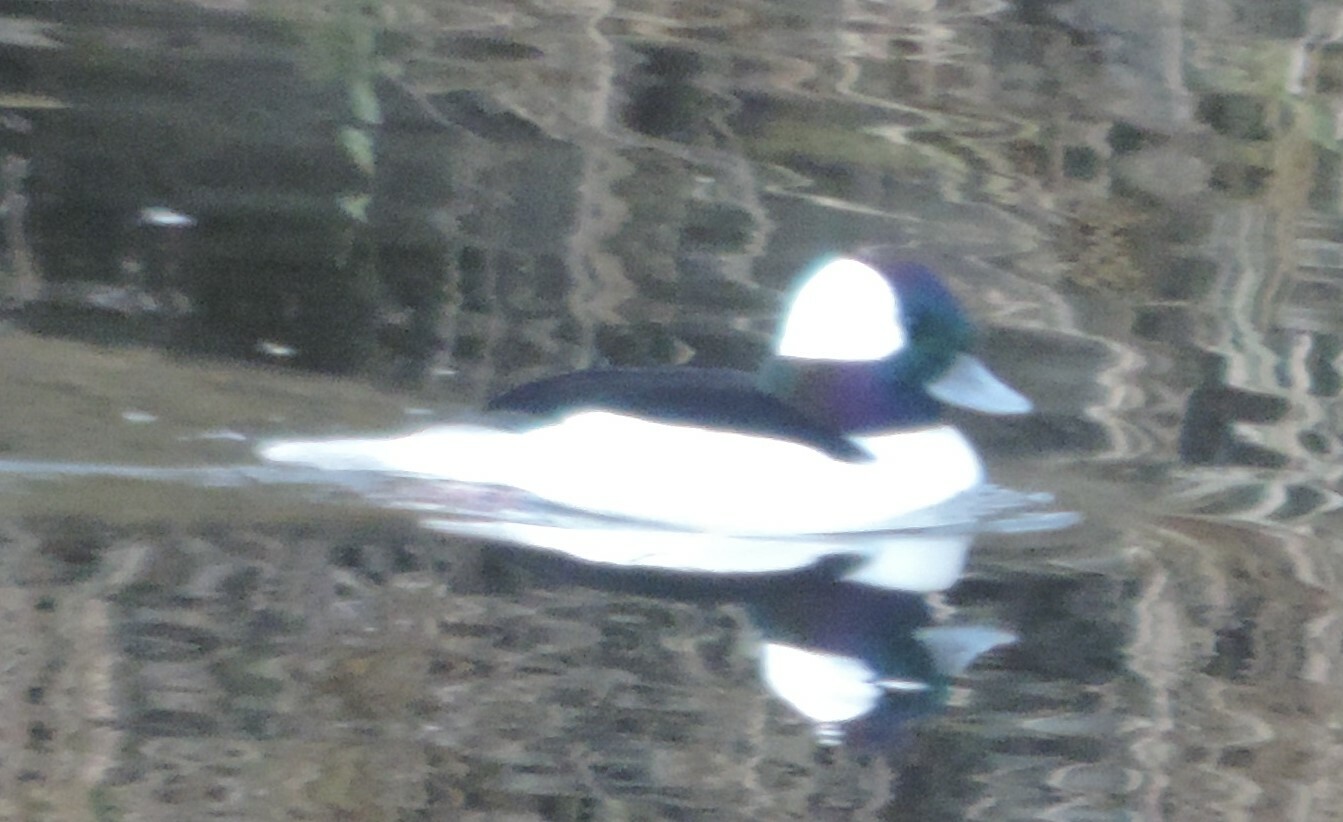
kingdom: Animalia
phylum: Chordata
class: Aves
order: Anseriformes
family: Anatidae
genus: Bucephala
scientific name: Bucephala albeola
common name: Bufflehead
